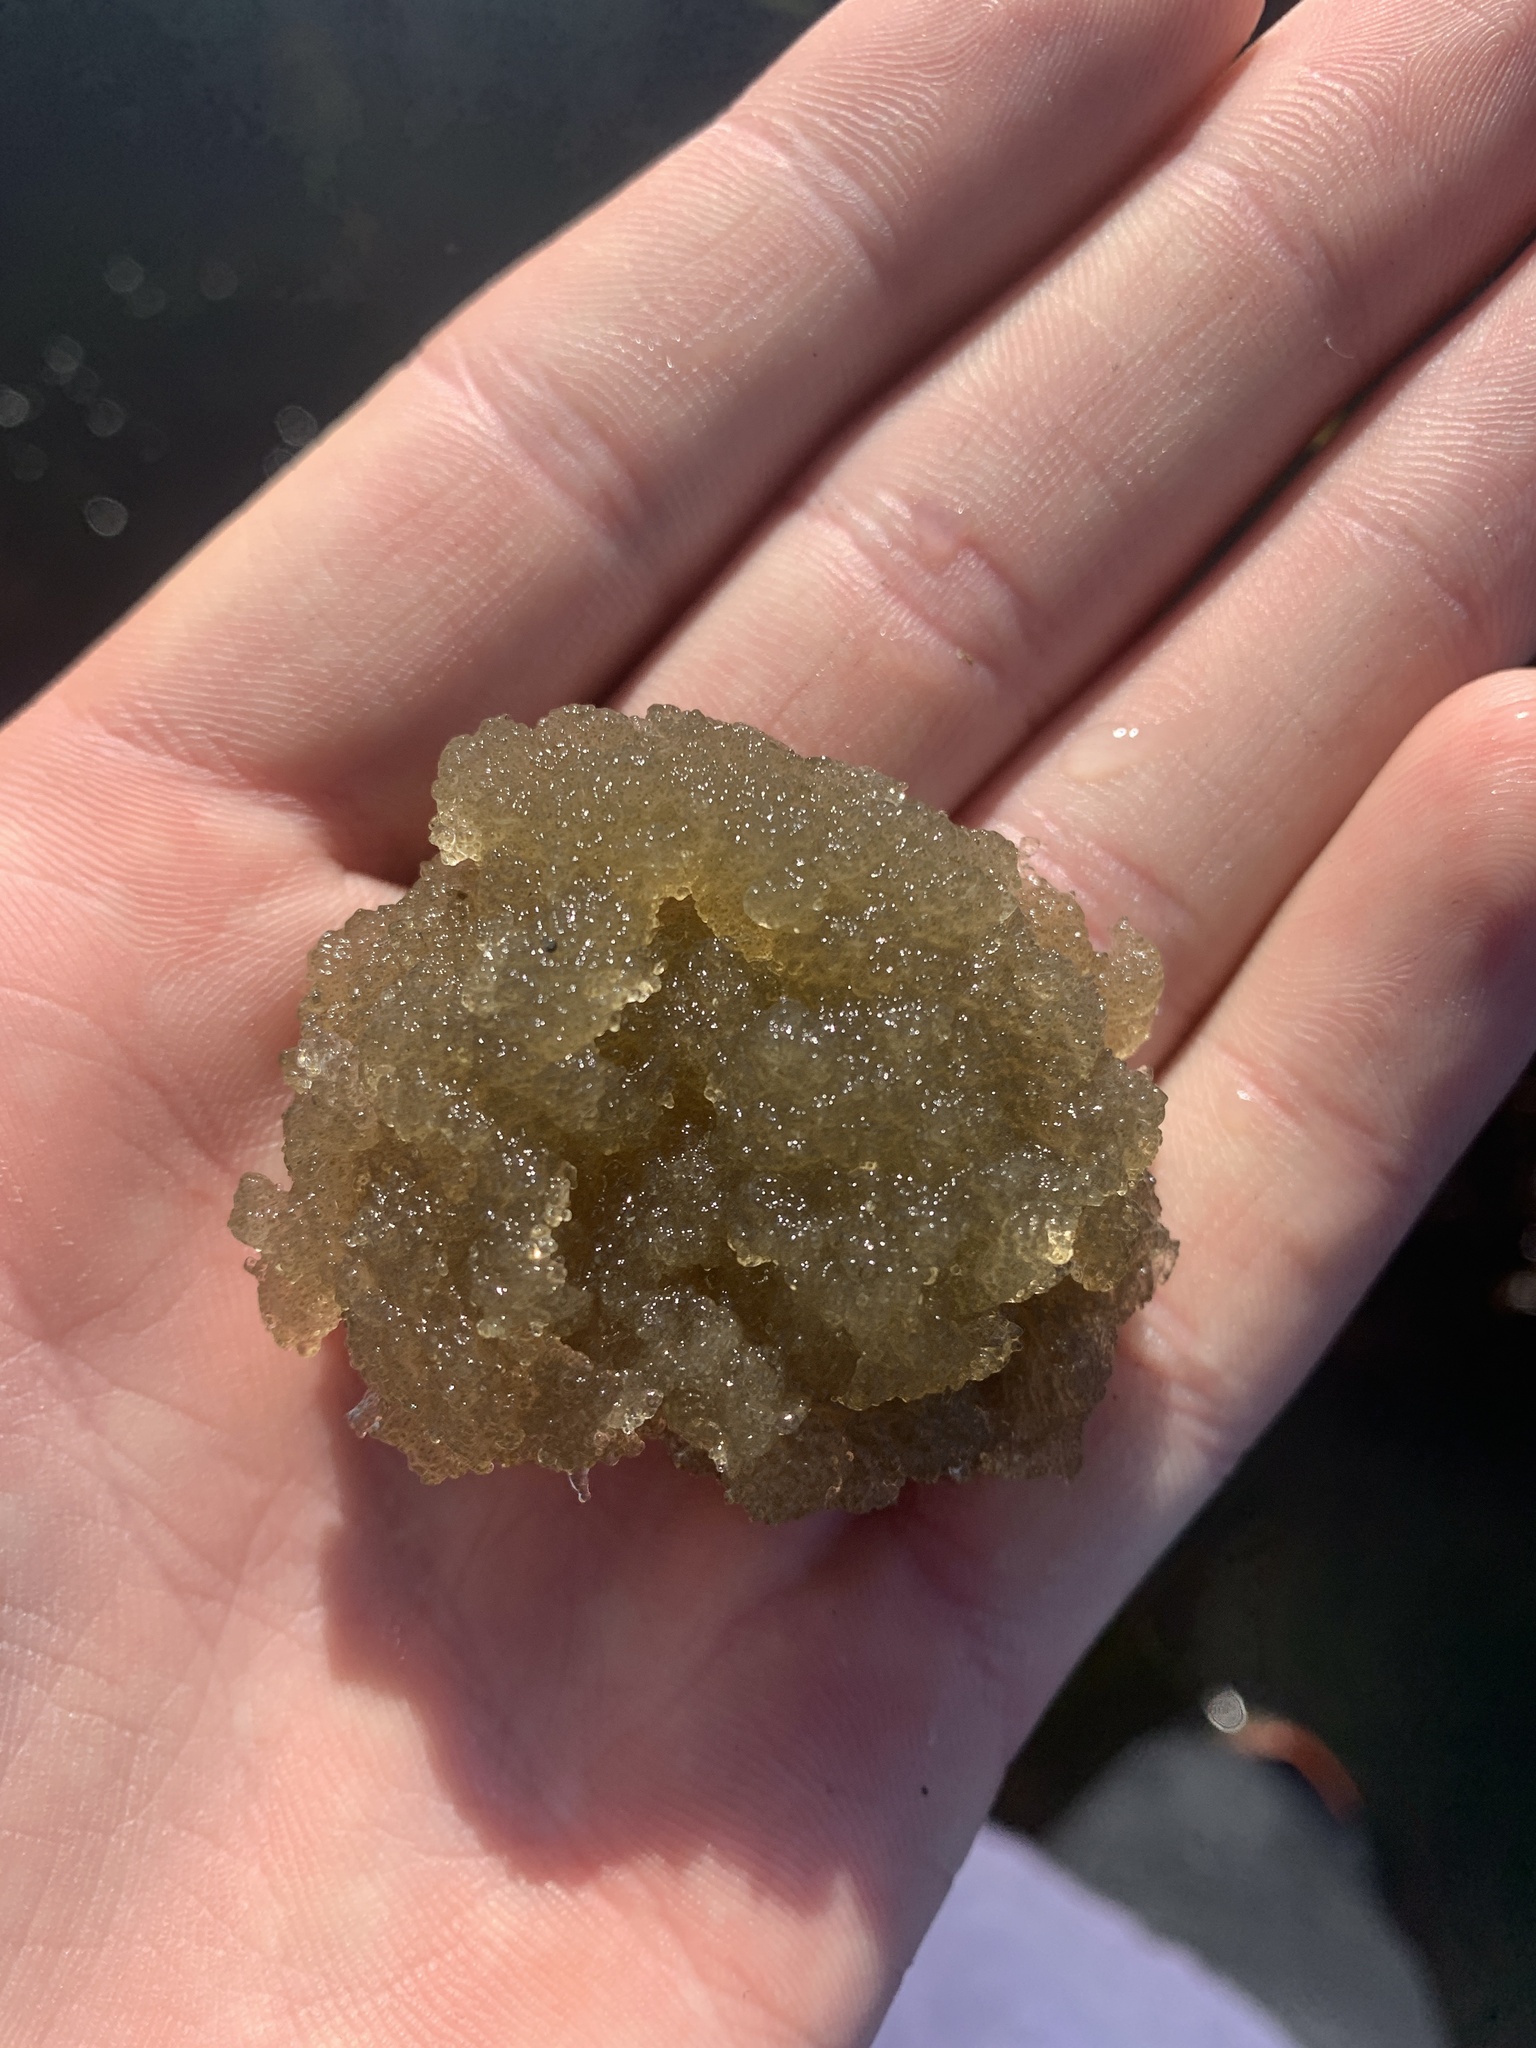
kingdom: Animalia
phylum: Annelida
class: Polychaeta
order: Phyllodocida
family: Nereididae
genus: Nereis
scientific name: Nereis vexillosa
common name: Mussel worm
